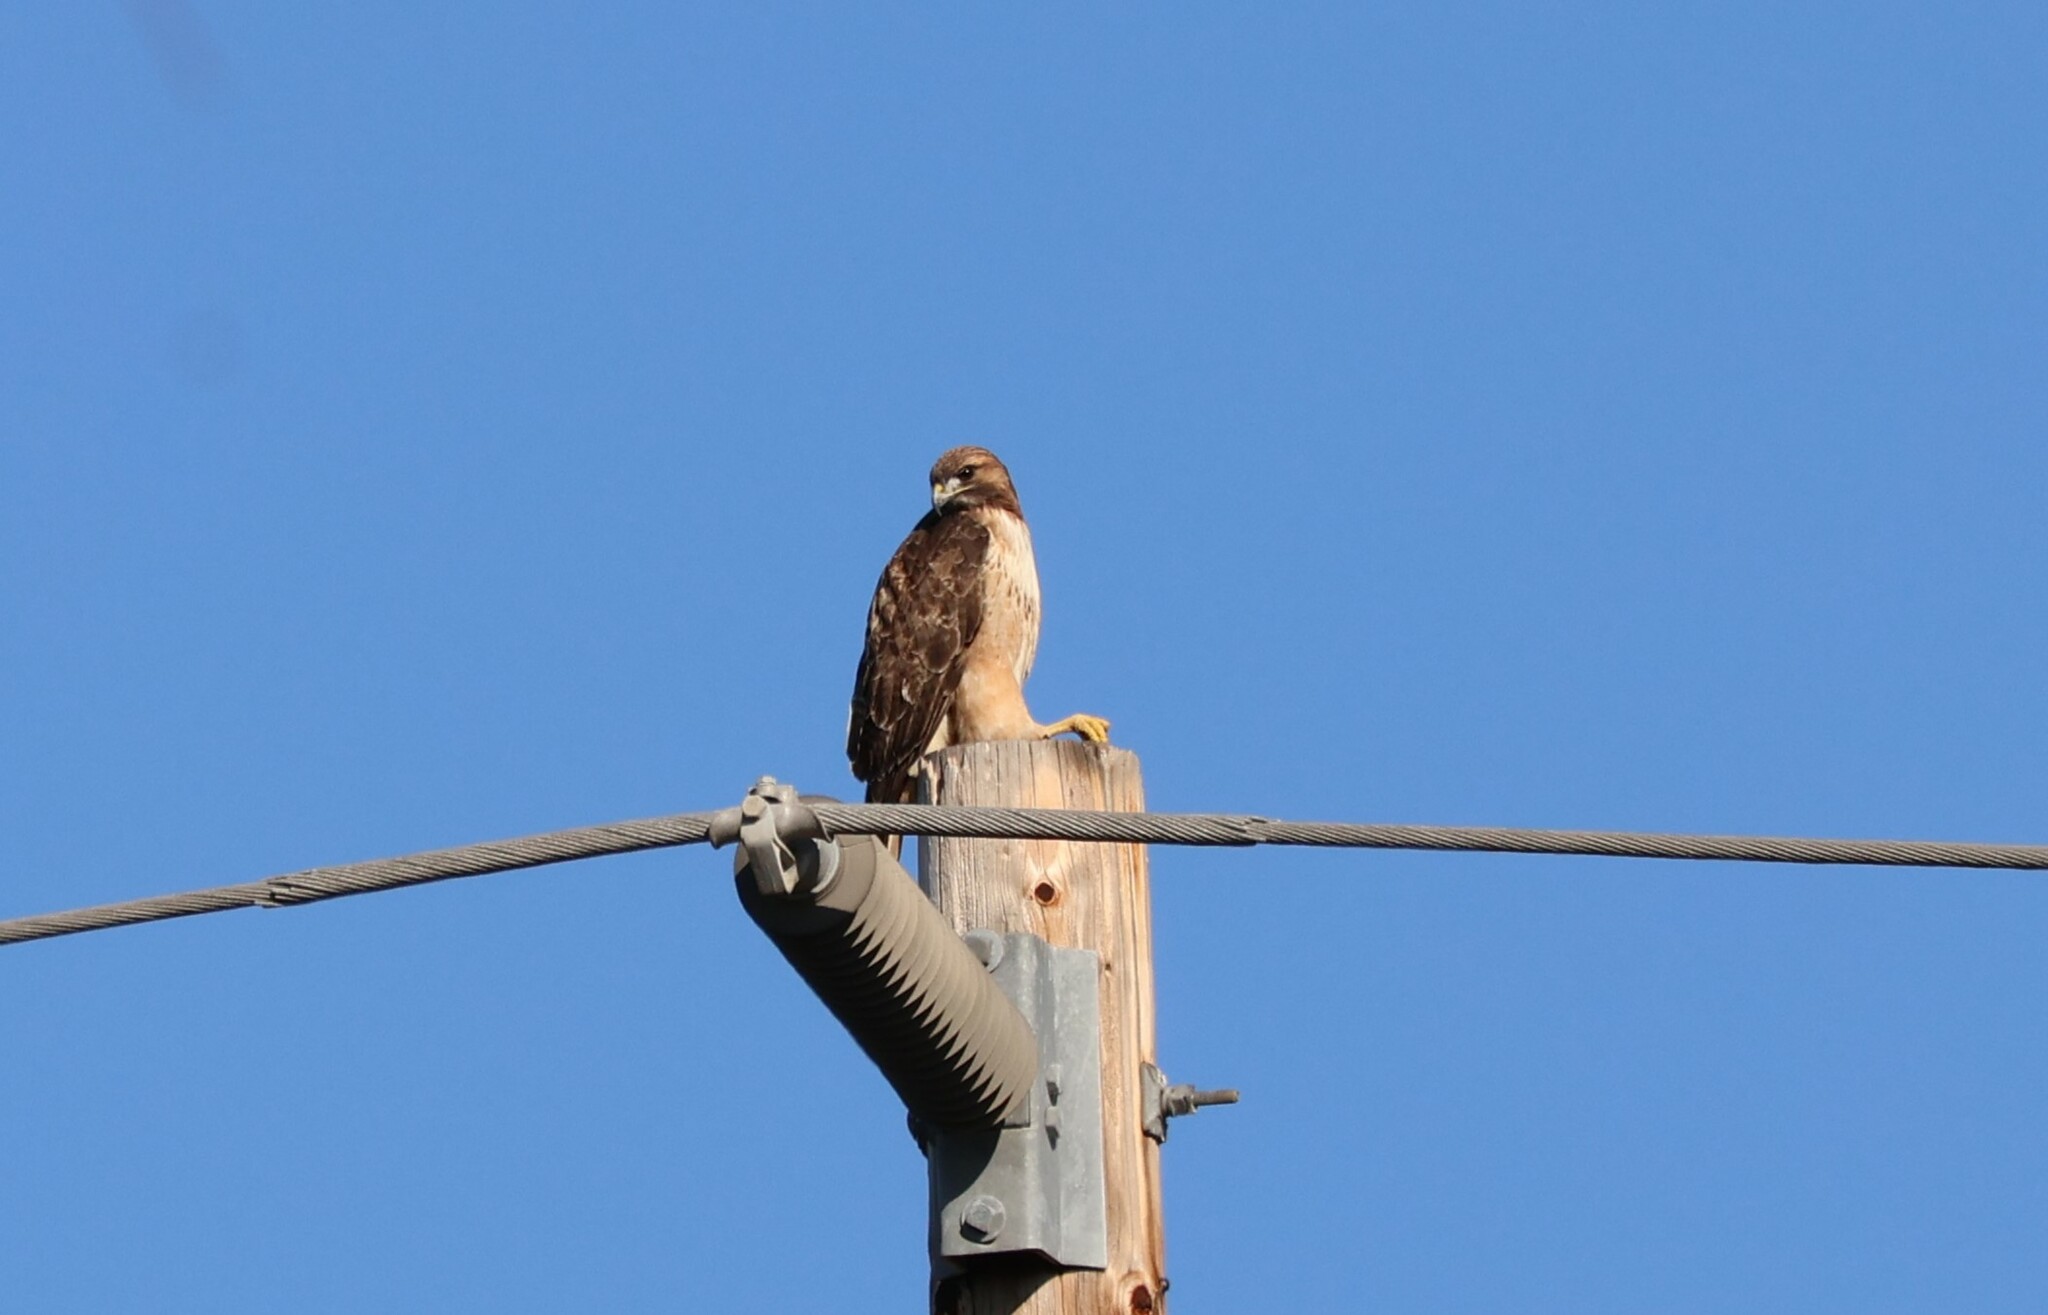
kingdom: Animalia
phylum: Chordata
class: Aves
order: Accipitriformes
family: Accipitridae
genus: Buteo
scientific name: Buteo jamaicensis
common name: Red-tailed hawk
